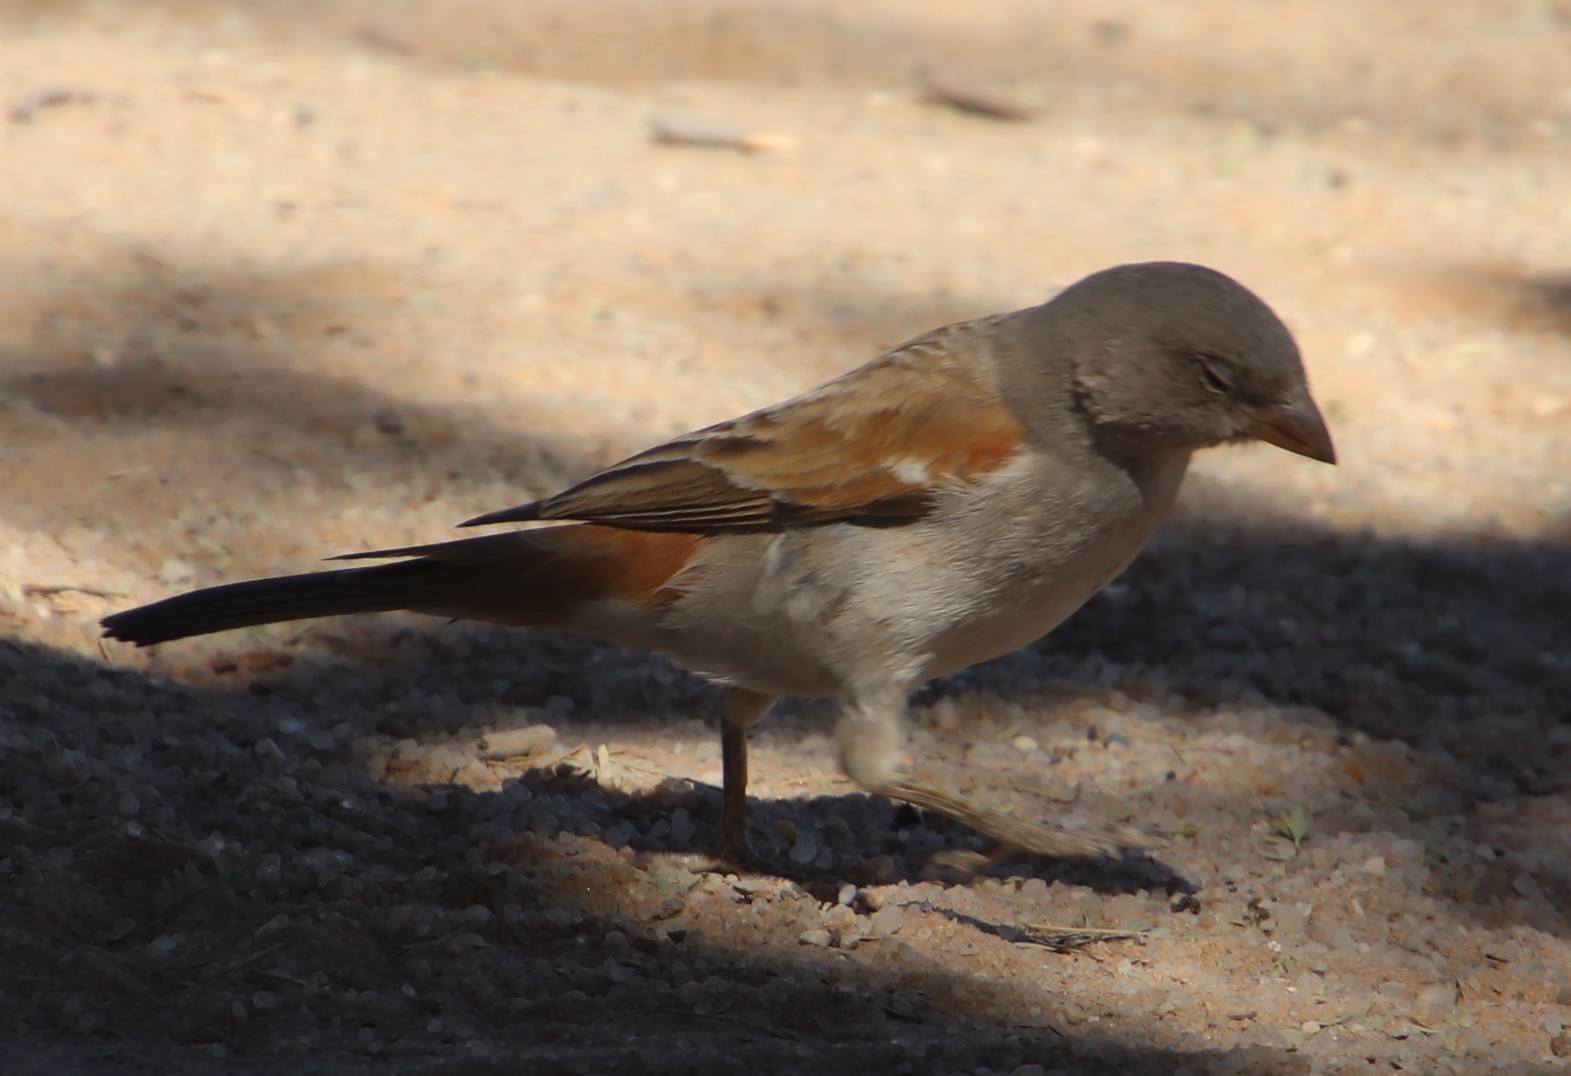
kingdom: Animalia
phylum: Chordata
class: Aves
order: Passeriformes
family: Passeridae
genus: Passer
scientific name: Passer diffusus
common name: Southern grey-headed sparrow
